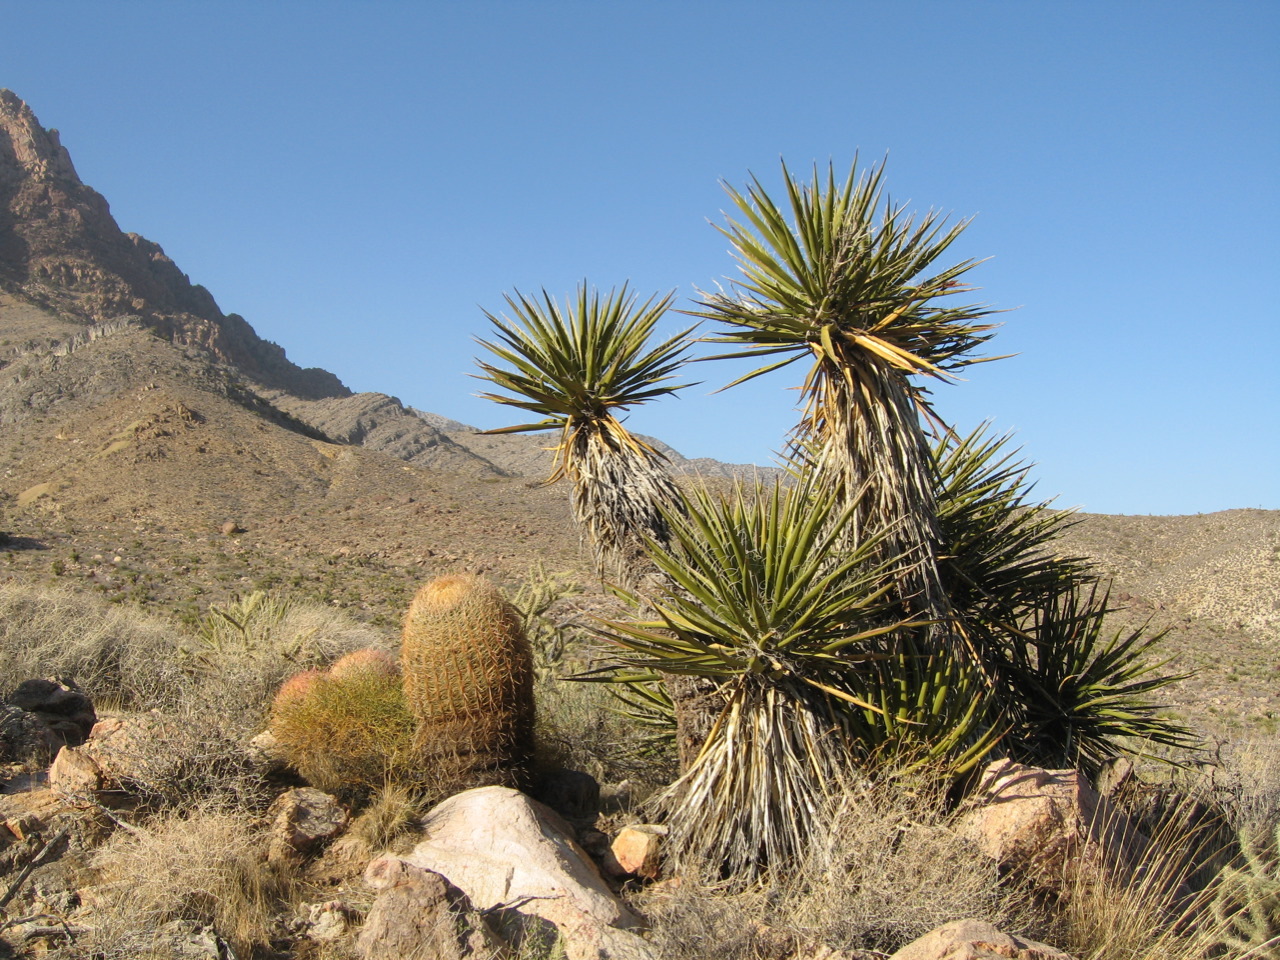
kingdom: Plantae
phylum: Tracheophyta
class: Liliopsida
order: Asparagales
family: Asparagaceae
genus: Yucca
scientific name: Yucca schidigera
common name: Mojave yucca
